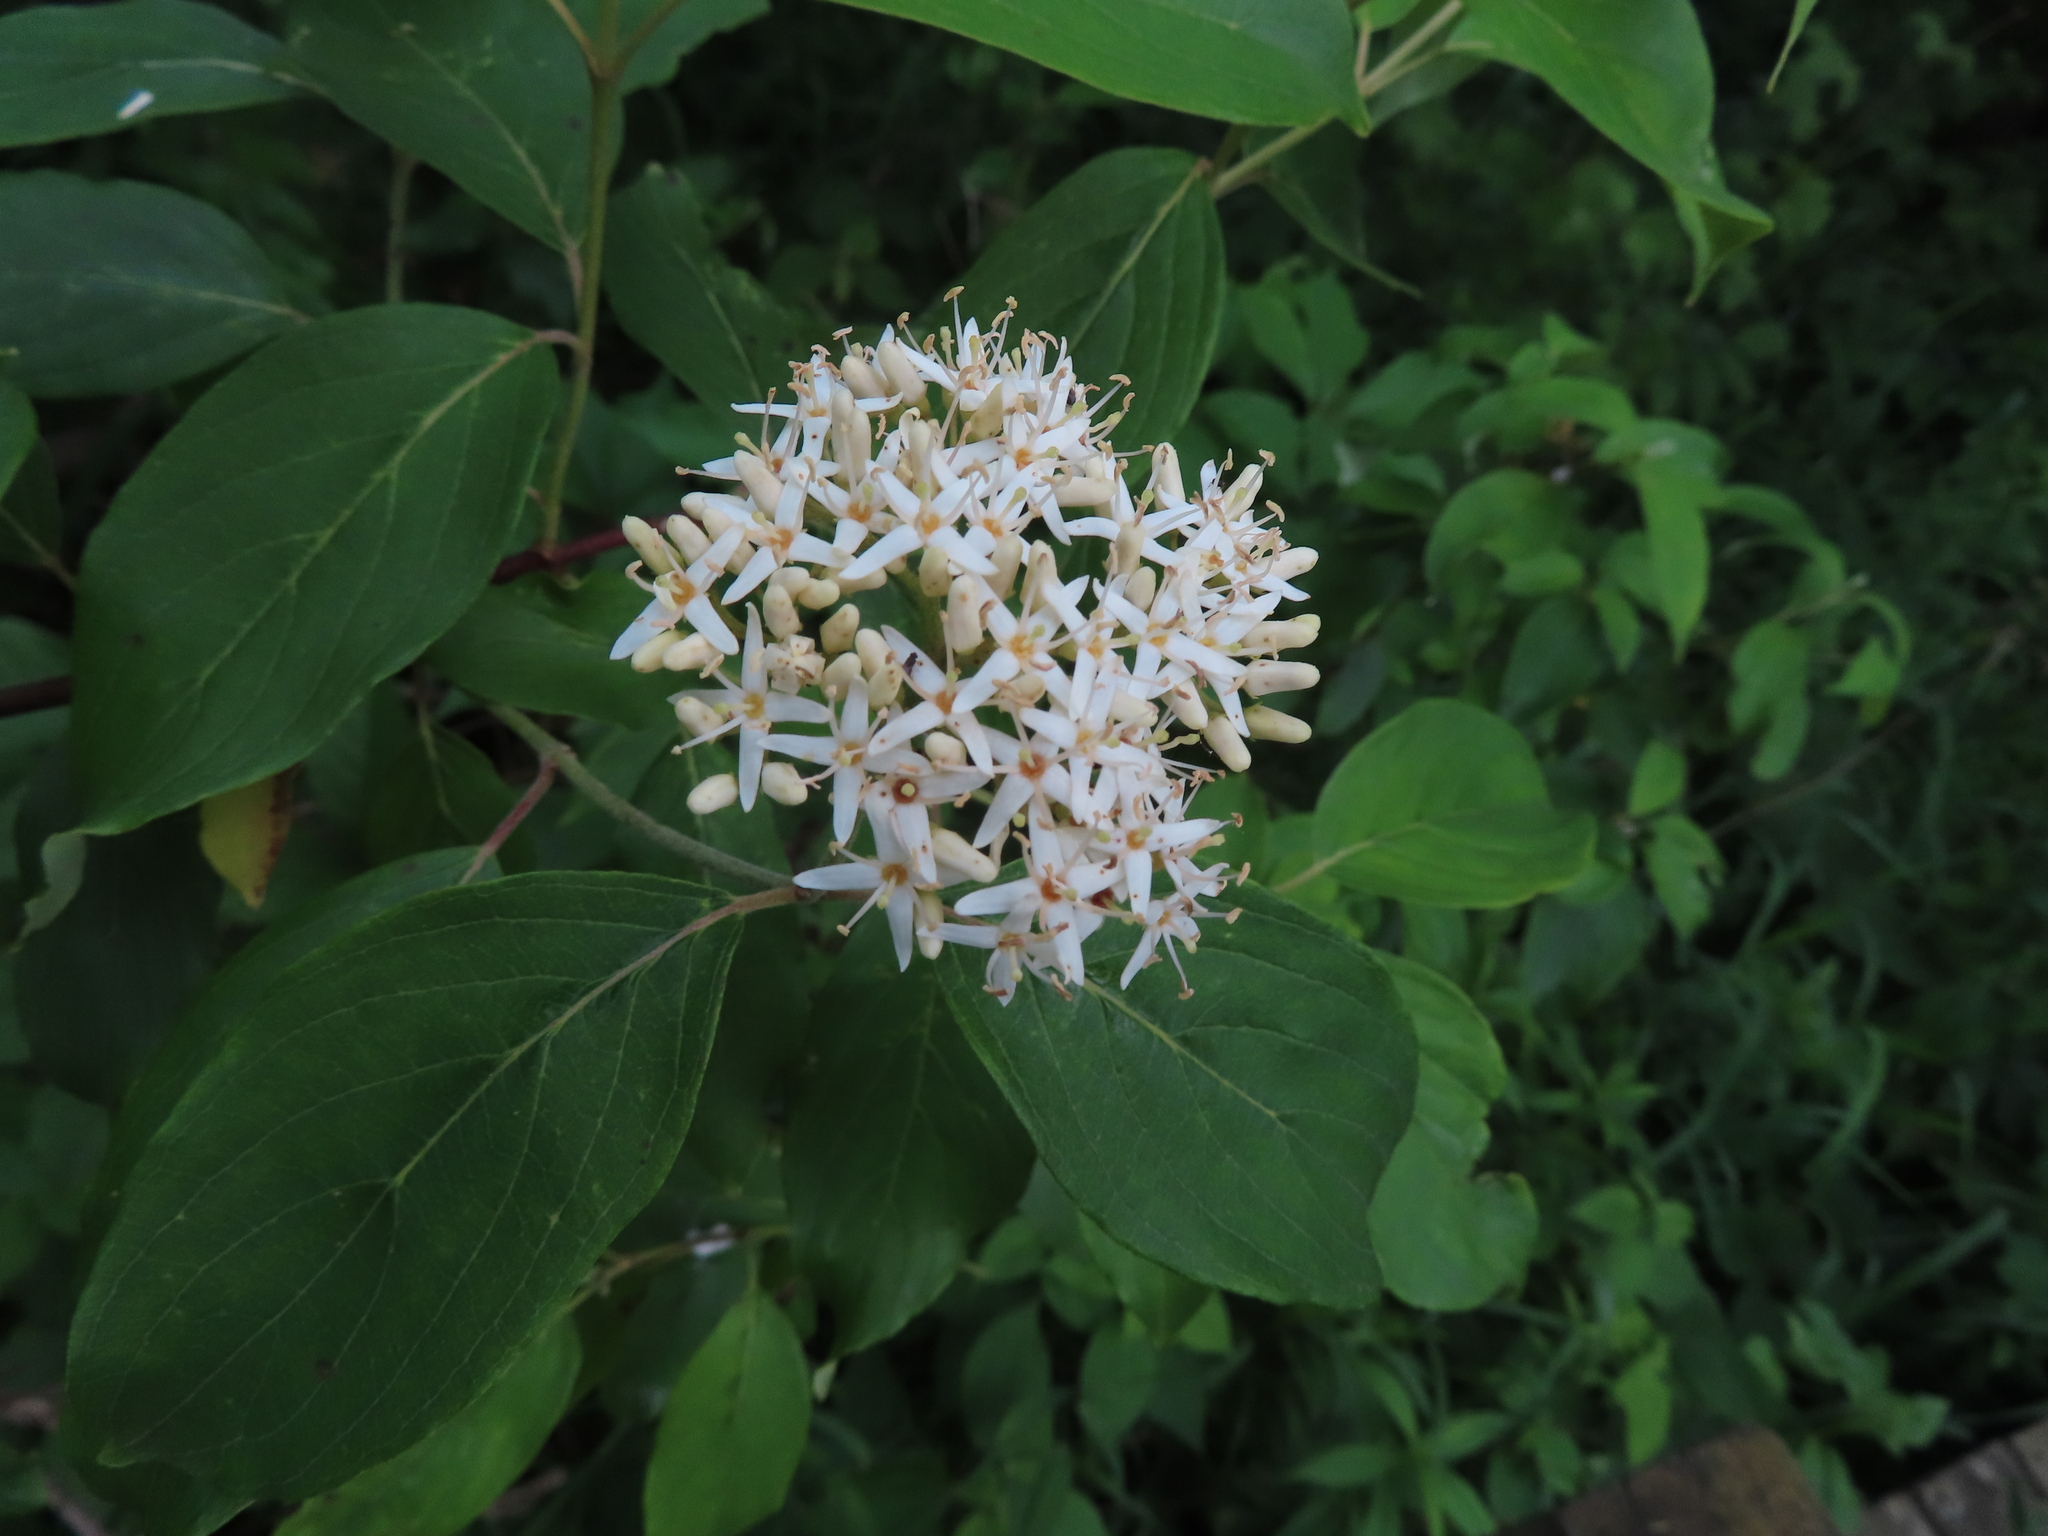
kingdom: Plantae
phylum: Tracheophyta
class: Magnoliopsida
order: Cornales
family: Cornaceae
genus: Cornus
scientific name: Cornus amomum
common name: Silky dogwood
